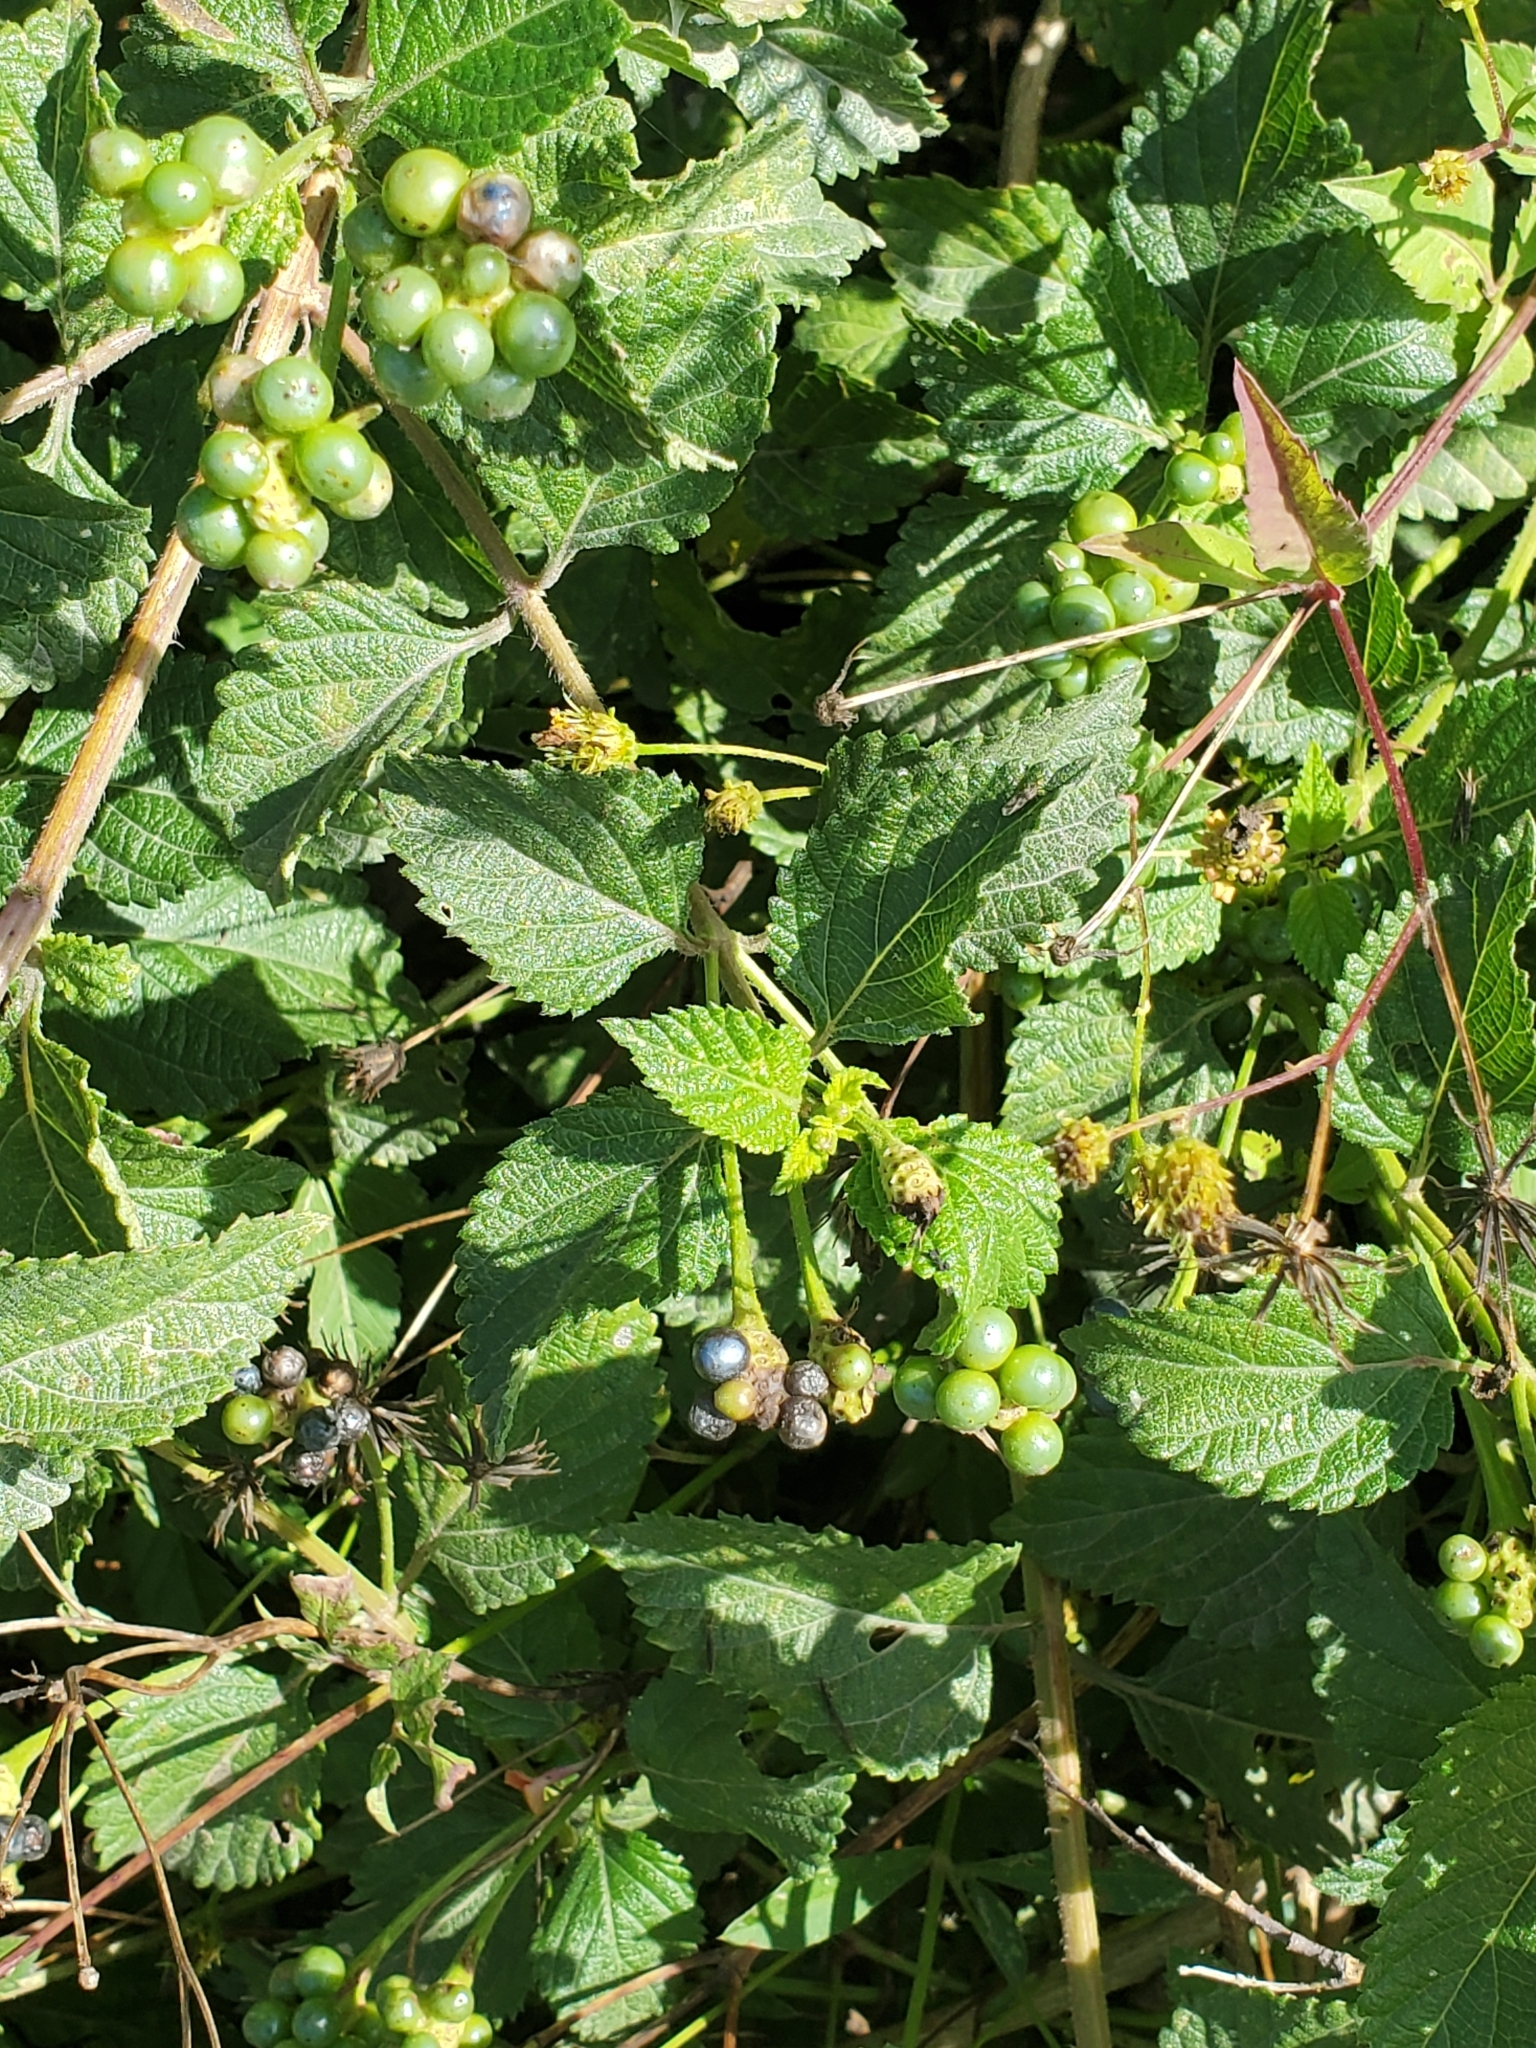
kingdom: Plantae
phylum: Tracheophyta
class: Magnoliopsida
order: Lamiales
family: Verbenaceae
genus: Lantana
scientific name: Lantana camara
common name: Lantana
